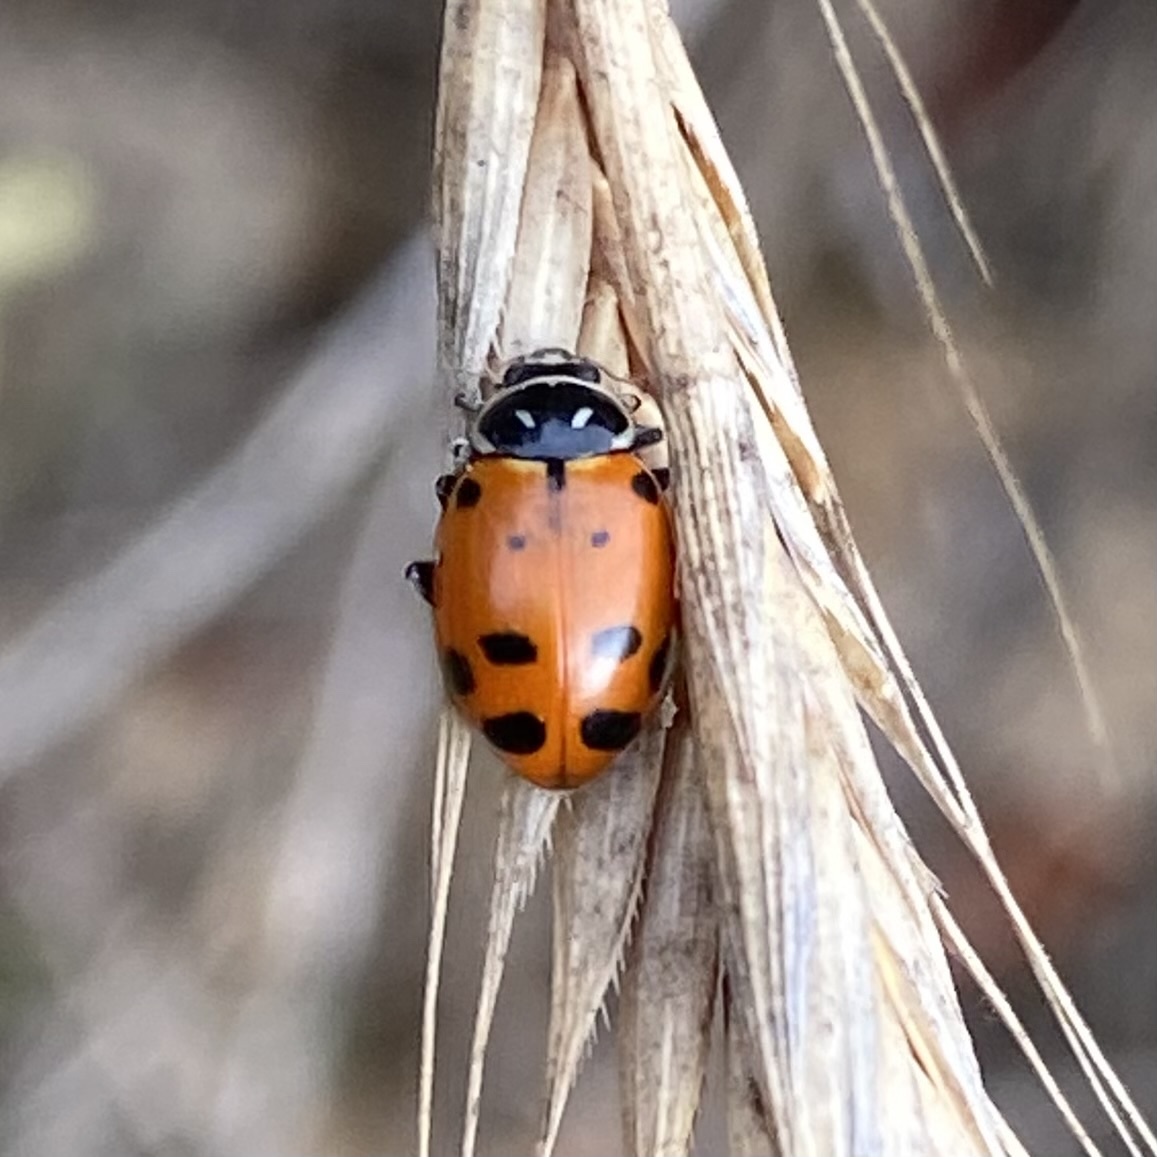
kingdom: Animalia
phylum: Arthropoda
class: Insecta
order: Coleoptera
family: Coccinellidae
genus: Hippodamia
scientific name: Hippodamia convergens
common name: Convergent lady beetle
